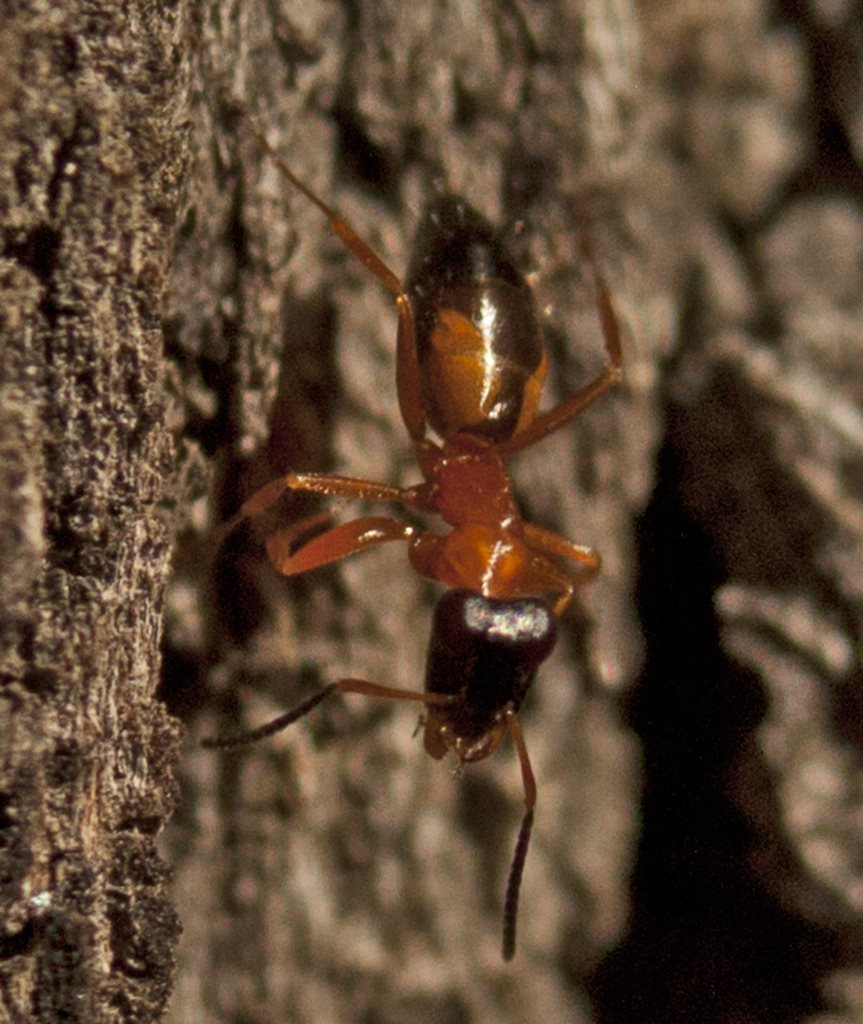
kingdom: Animalia
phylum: Arthropoda
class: Insecta
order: Hymenoptera
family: Formicidae
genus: Opisthopsis
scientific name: Opisthopsis rufithorax
